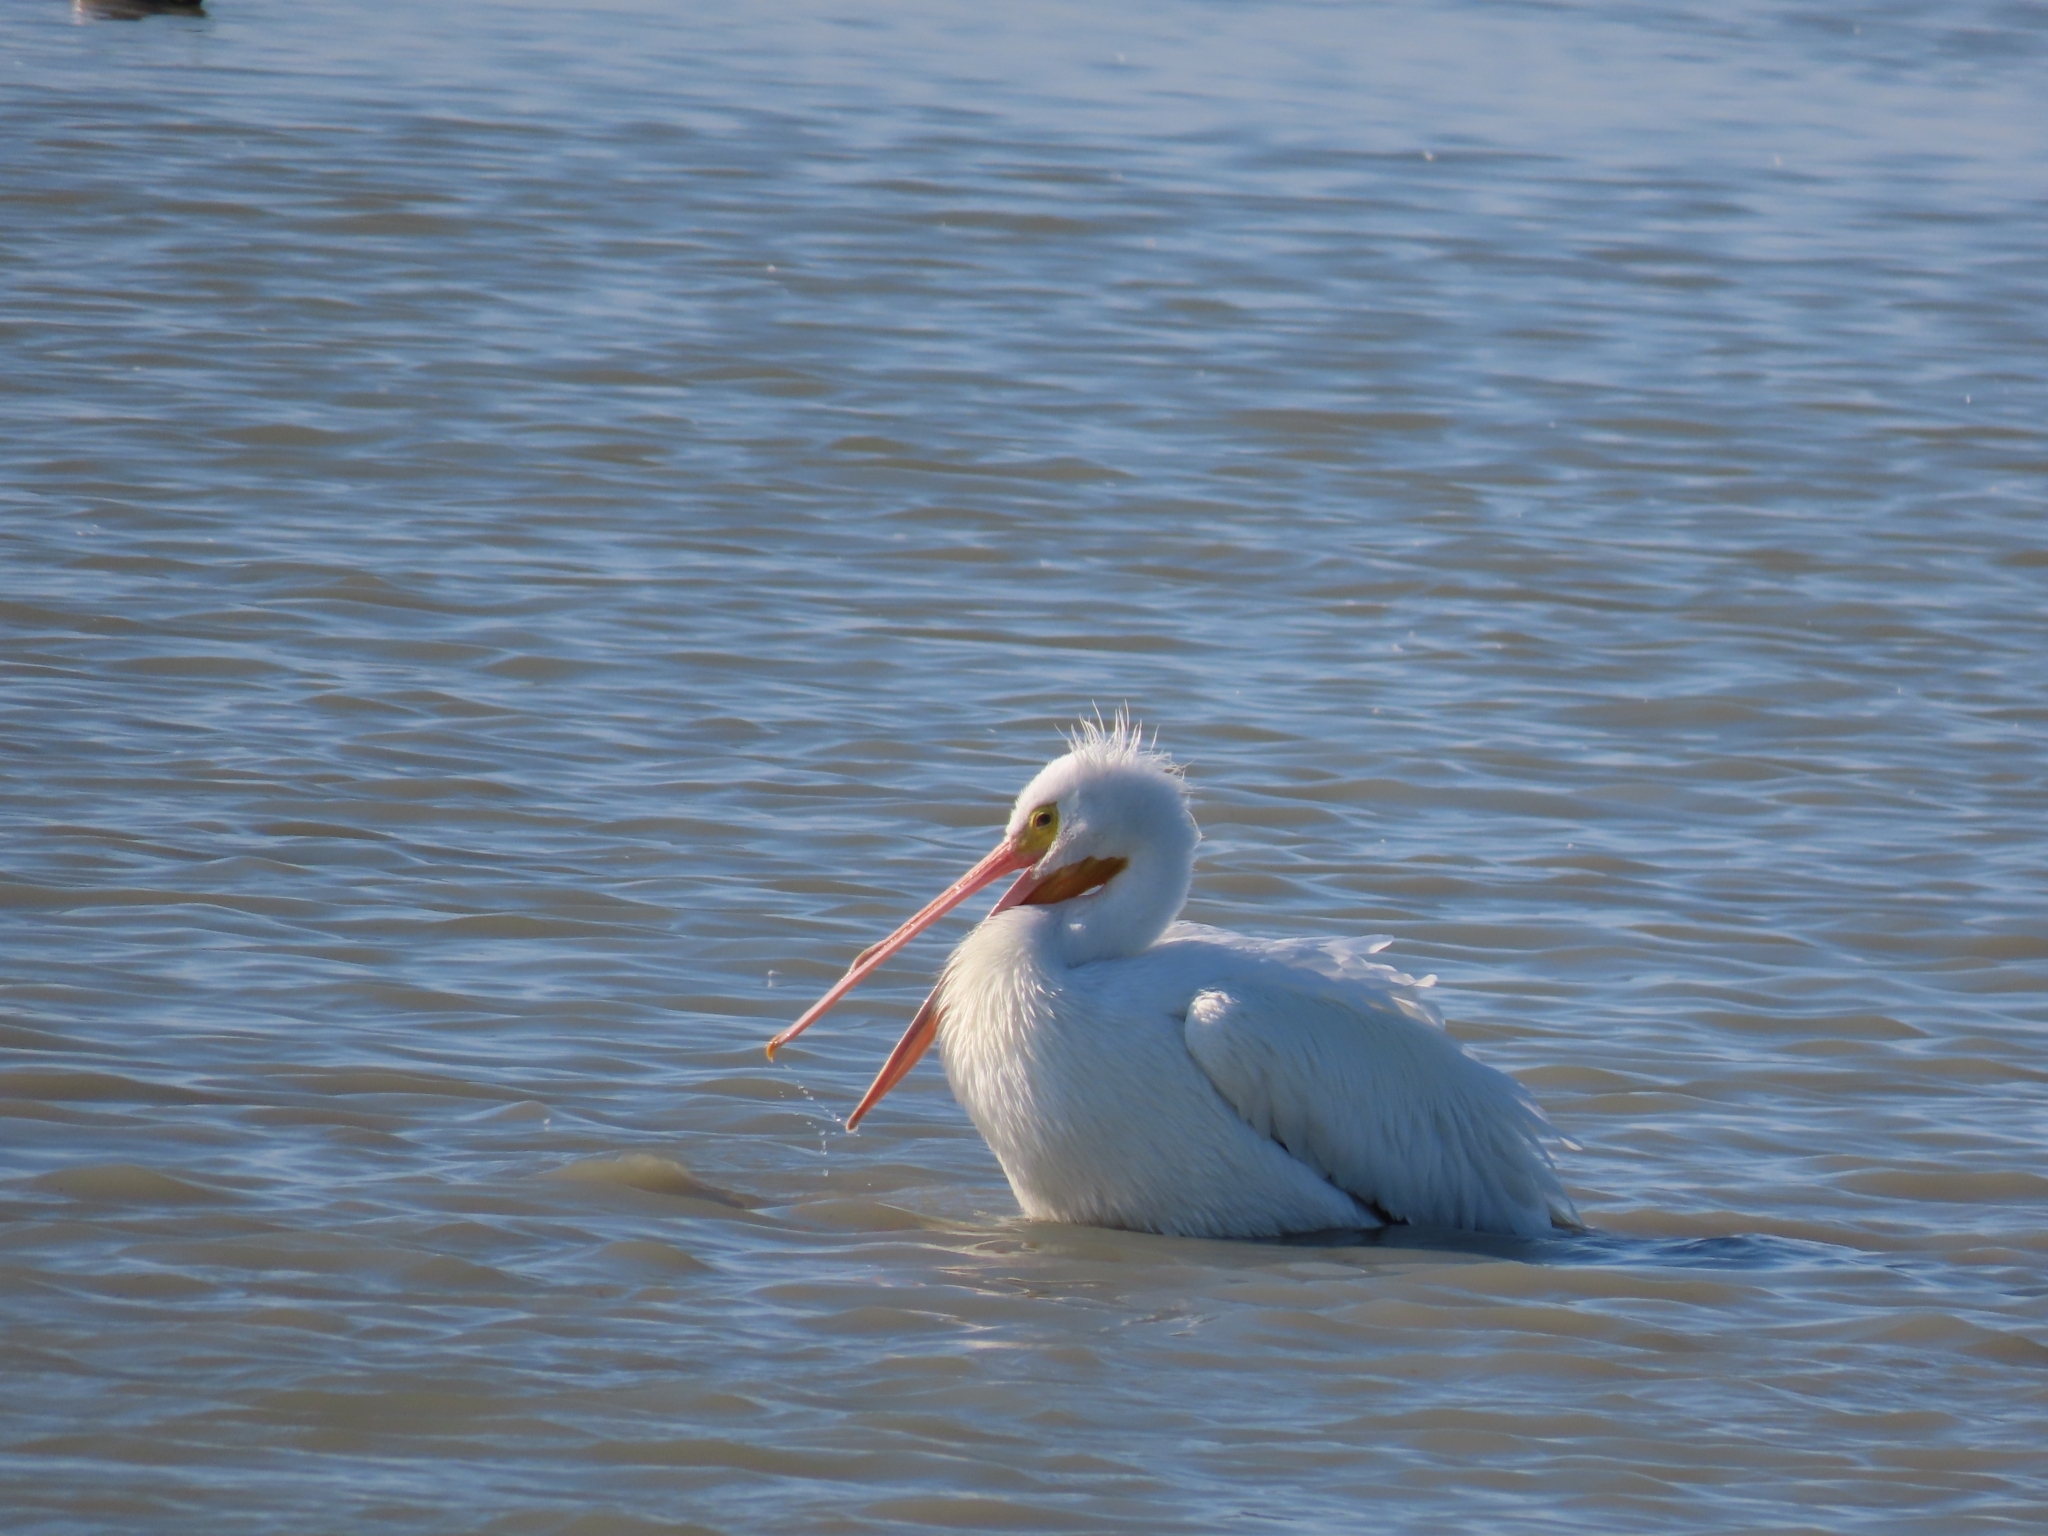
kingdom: Animalia
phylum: Chordata
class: Aves
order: Pelecaniformes
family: Pelecanidae
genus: Pelecanus
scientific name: Pelecanus erythrorhynchos
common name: American white pelican
